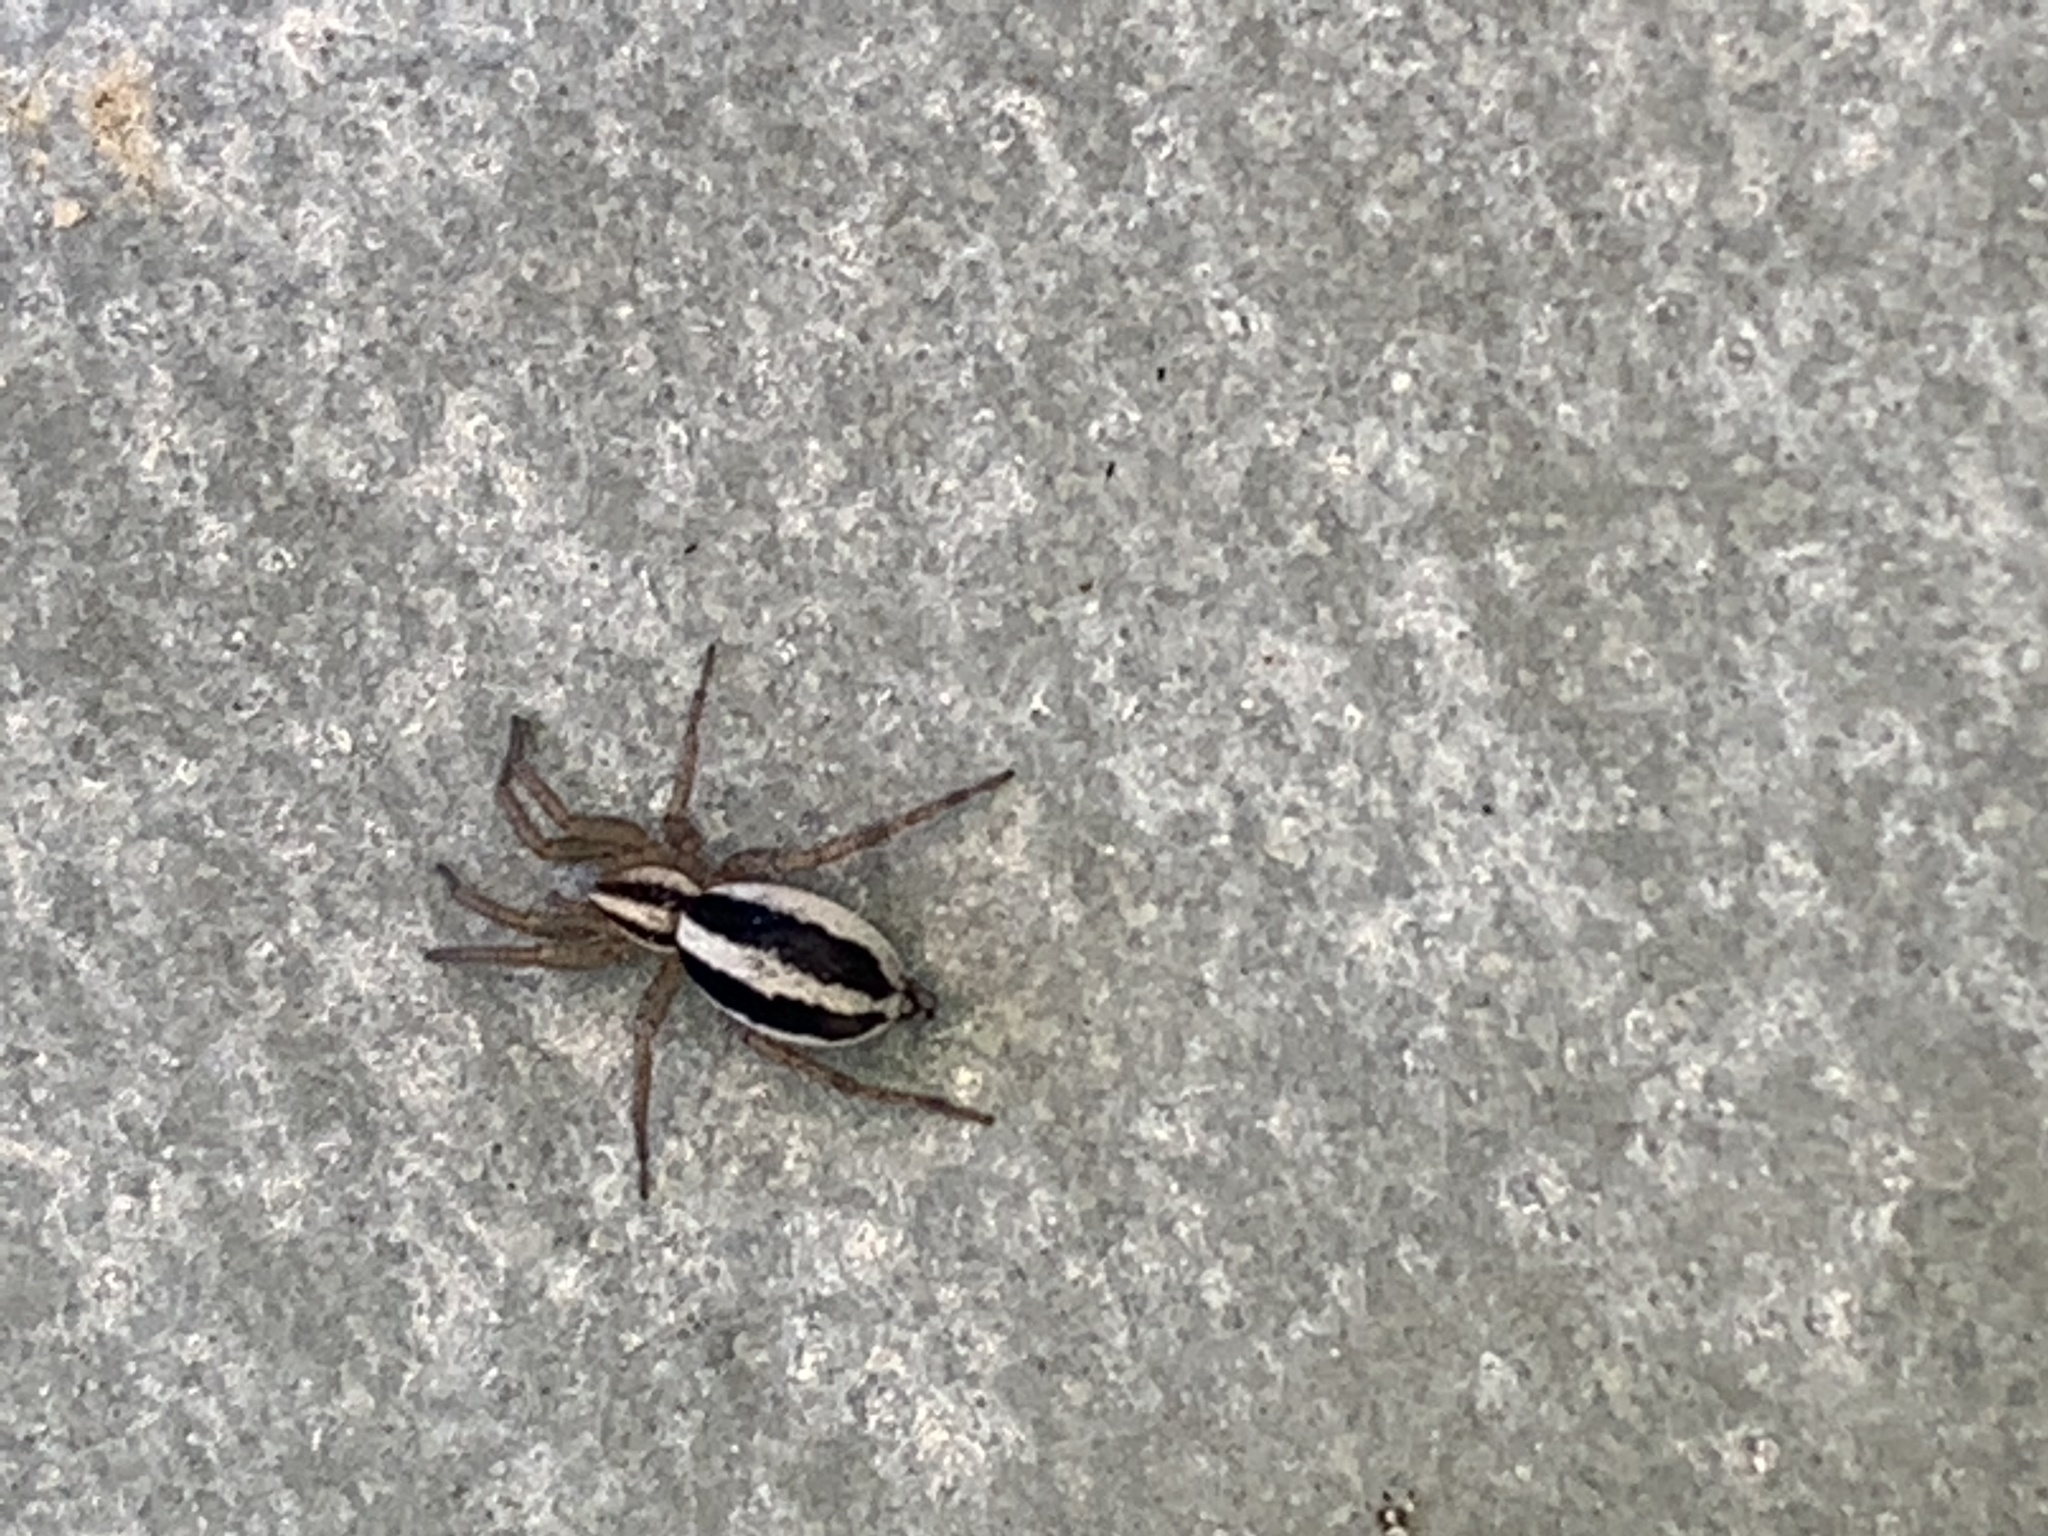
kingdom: Animalia
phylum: Arthropoda
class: Arachnida
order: Araneae
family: Gnaphosidae
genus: Cesonia
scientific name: Cesonia bilineata
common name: Two-lined stealthy ground spider
